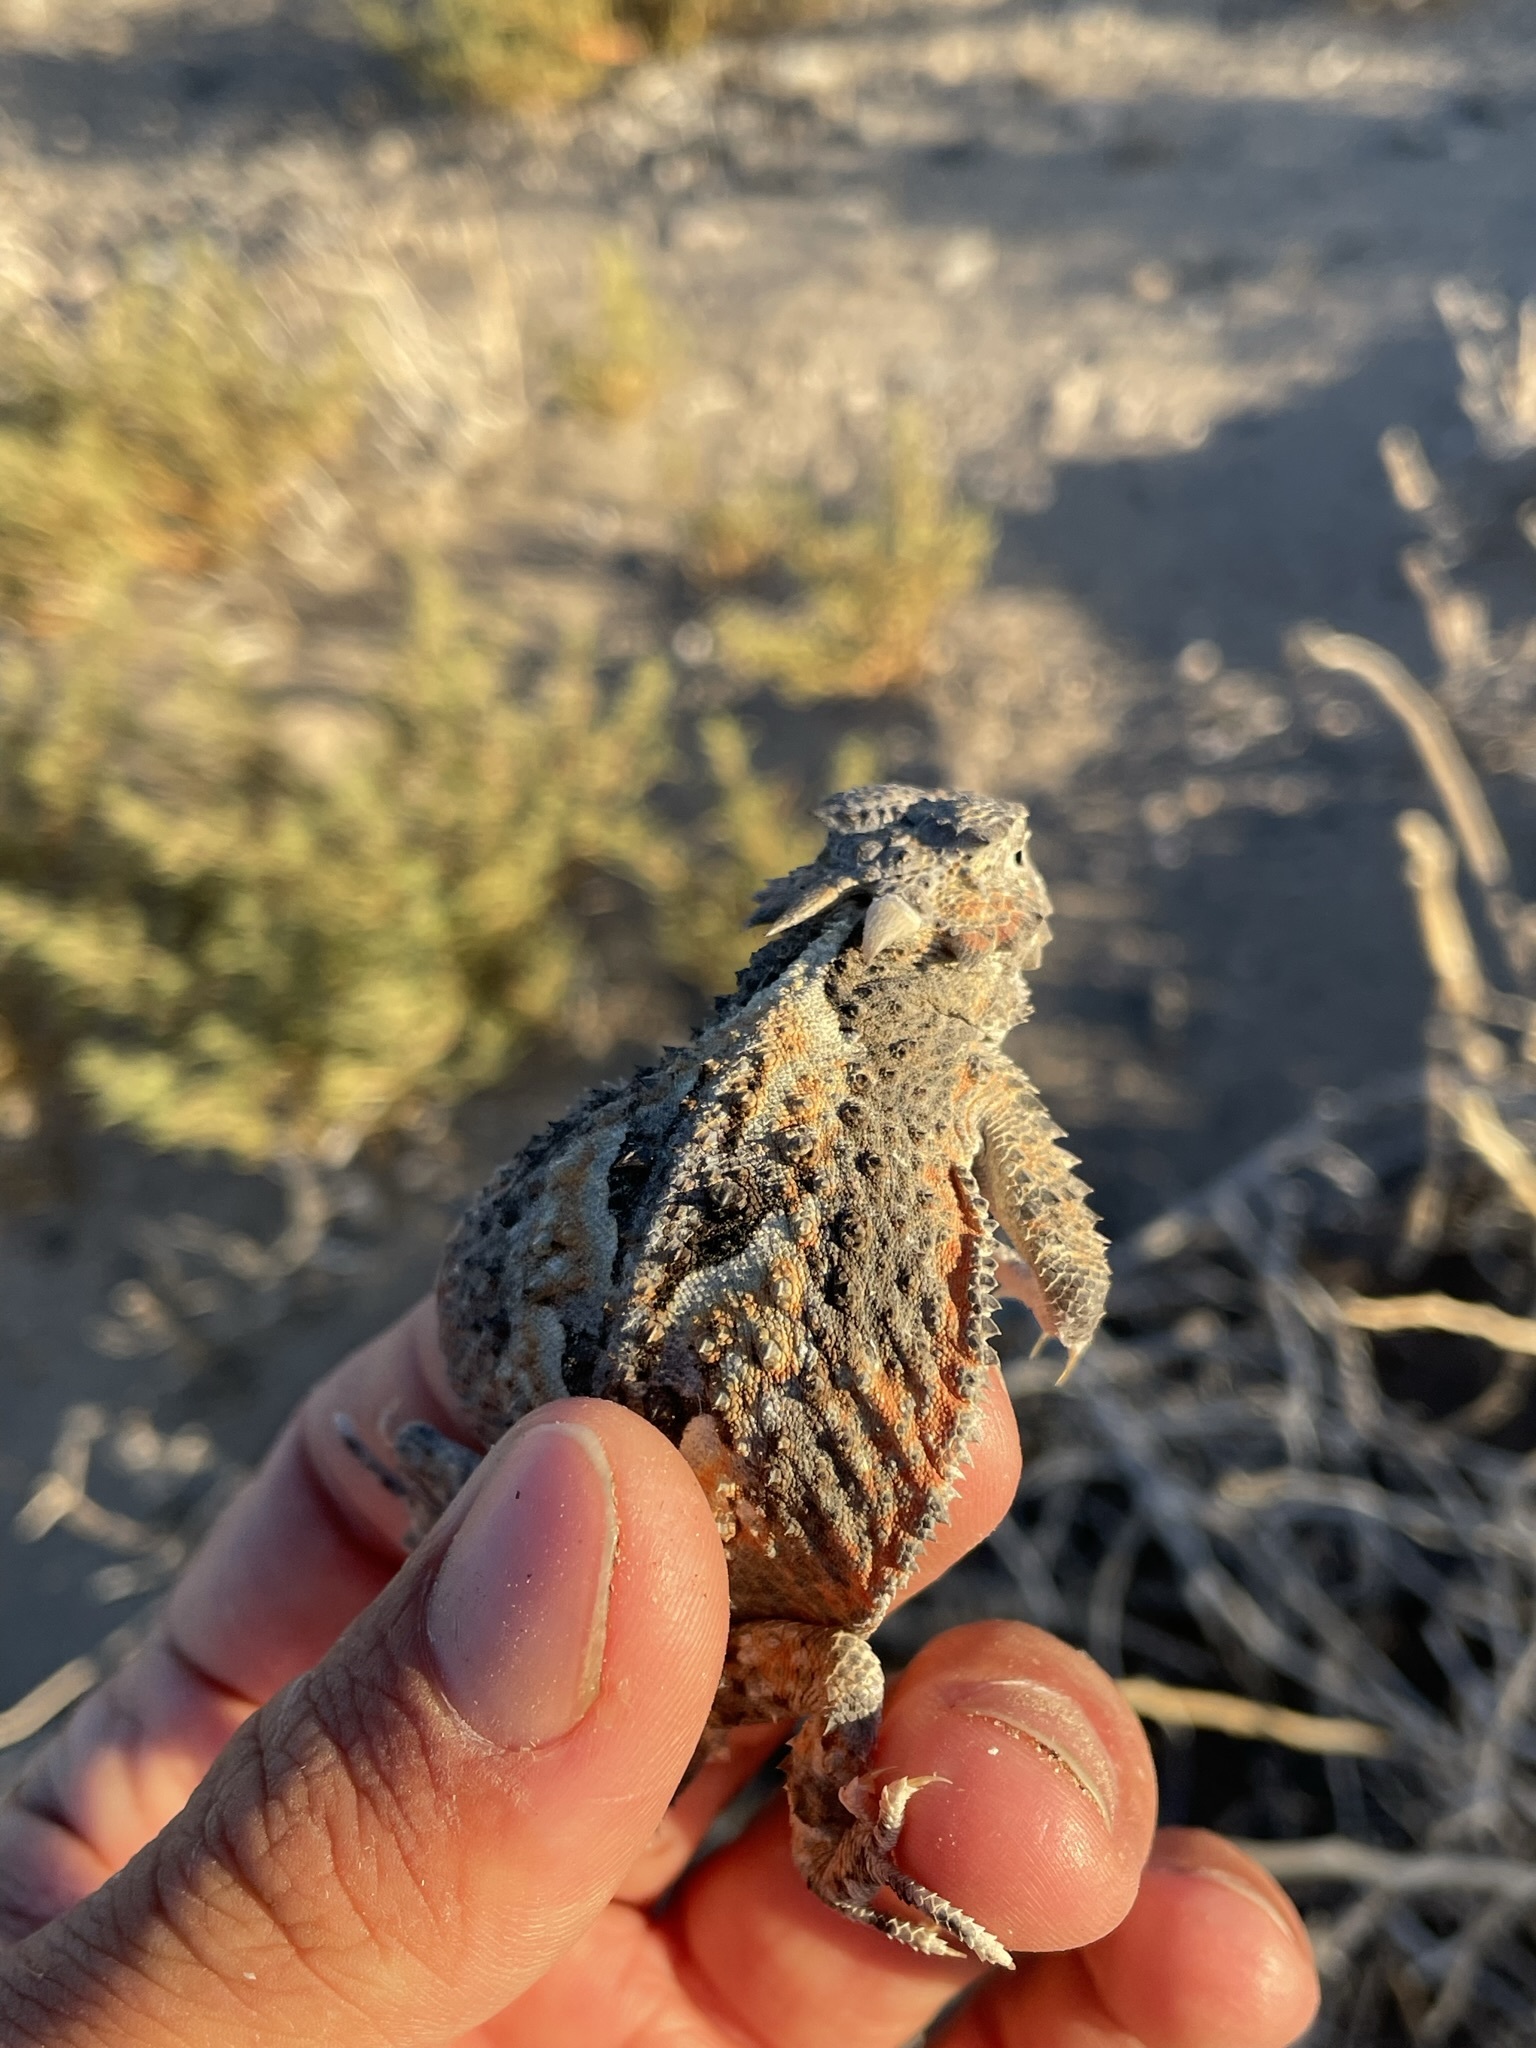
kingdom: Animalia
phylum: Chordata
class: Squamata
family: Phrynosomatidae
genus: Phrynosoma
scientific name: Phrynosoma platyrhinos
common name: Desert horned lizard
